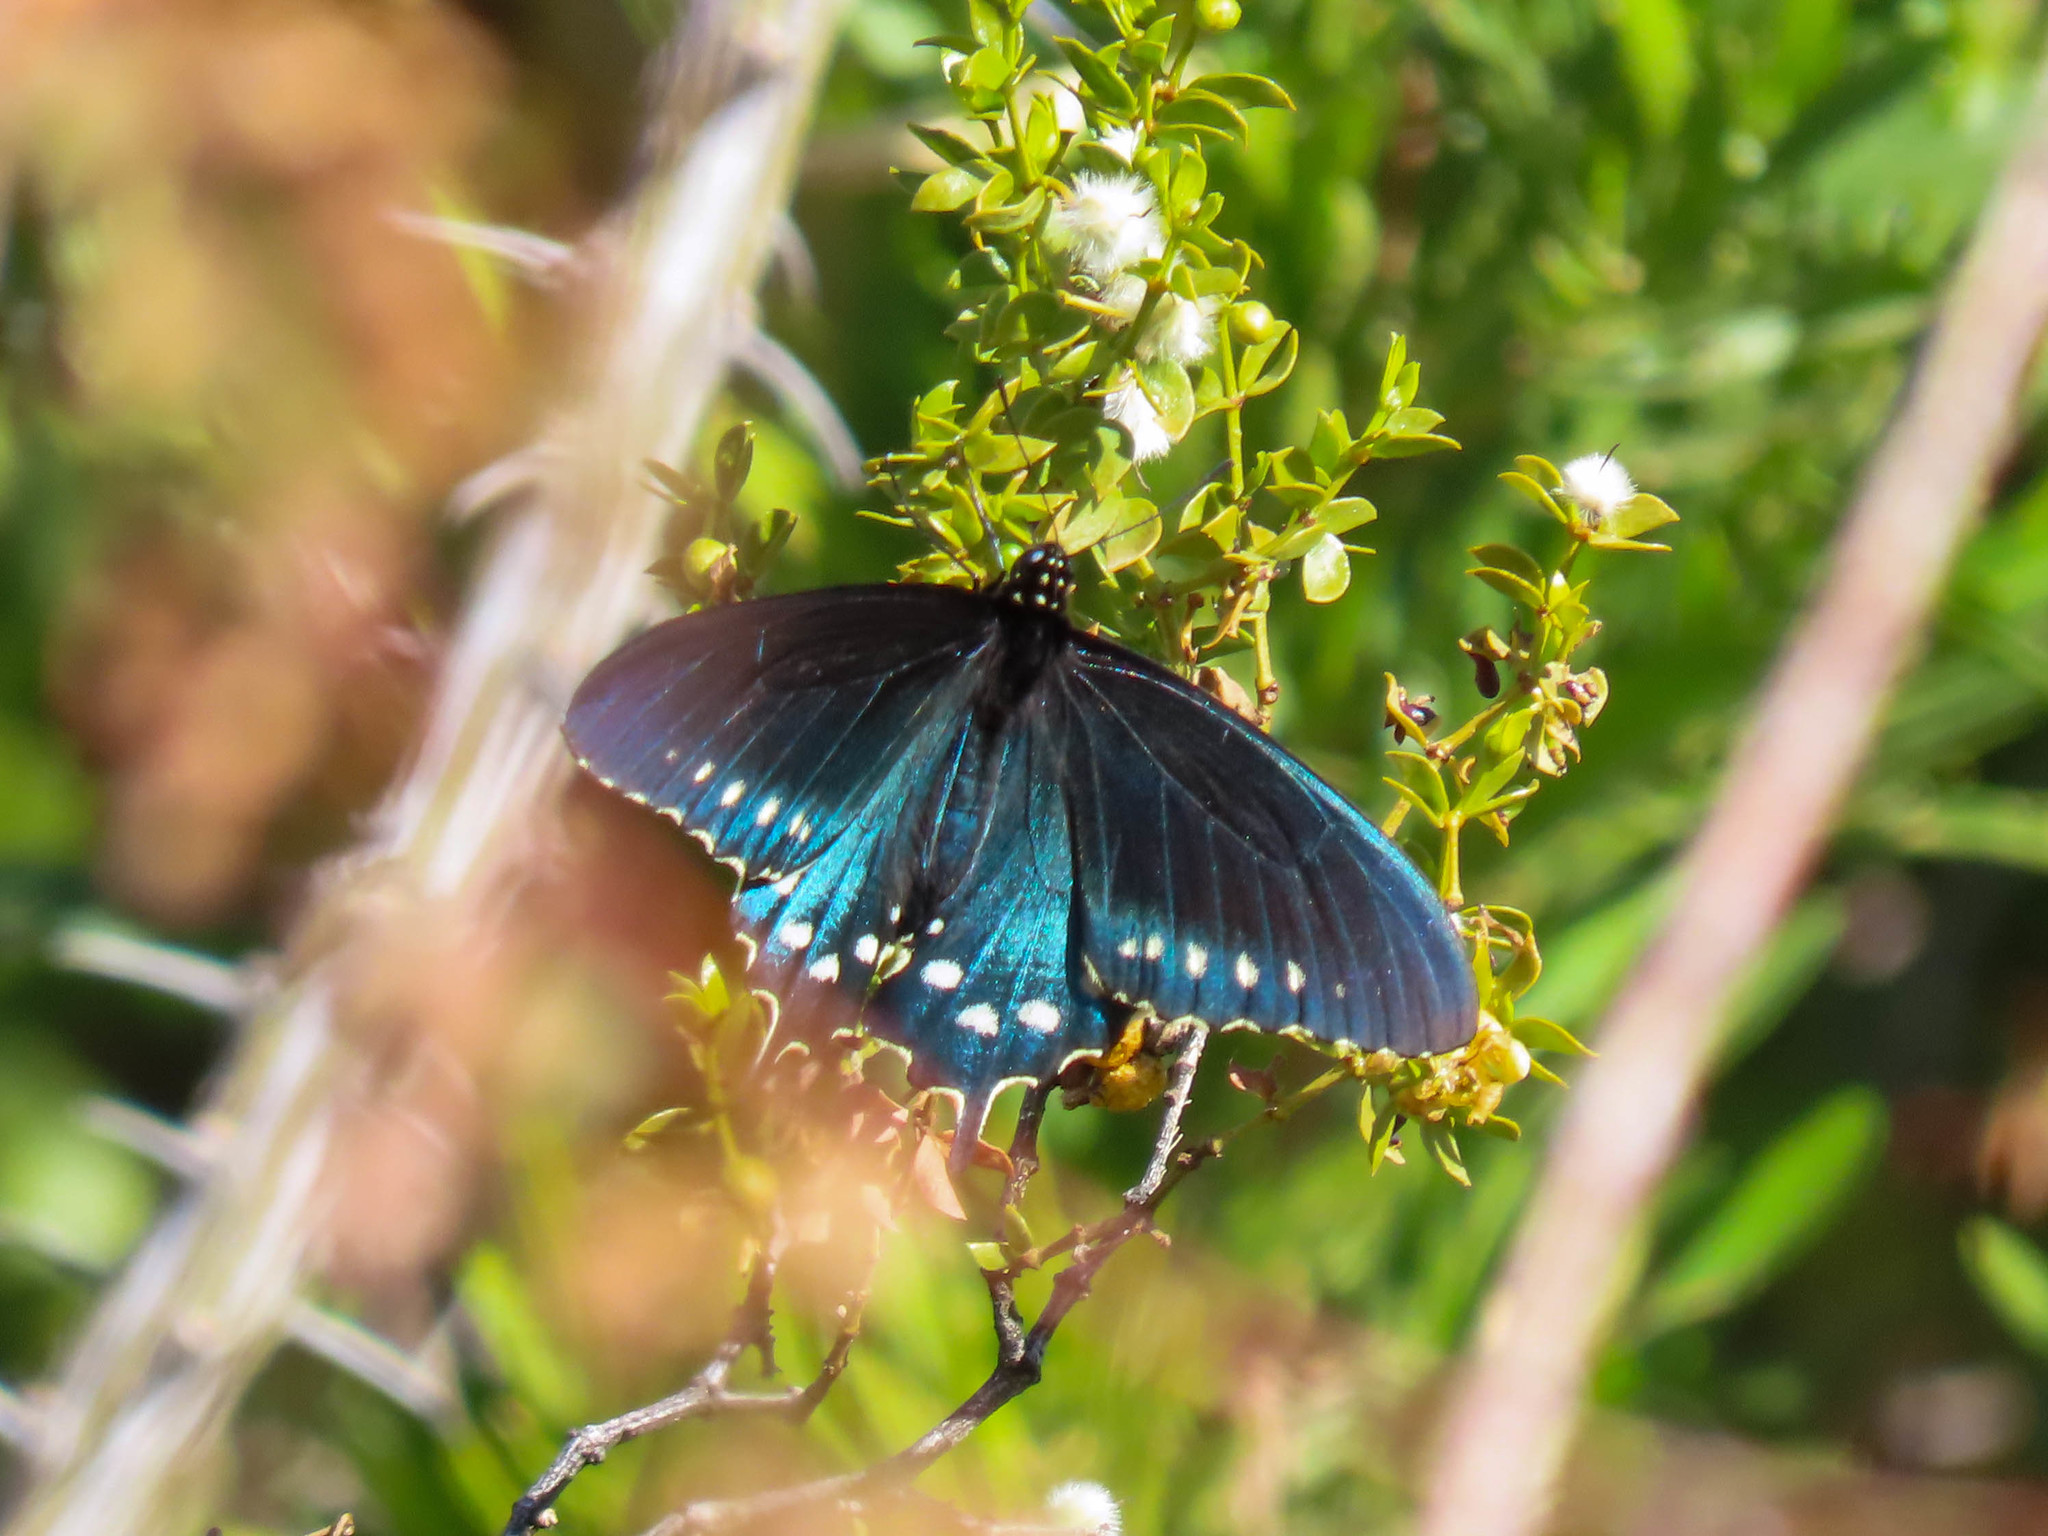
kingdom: Animalia
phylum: Arthropoda
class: Insecta
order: Lepidoptera
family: Papilionidae
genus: Battus
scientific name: Battus philenor
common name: Pipevine swallowtail
